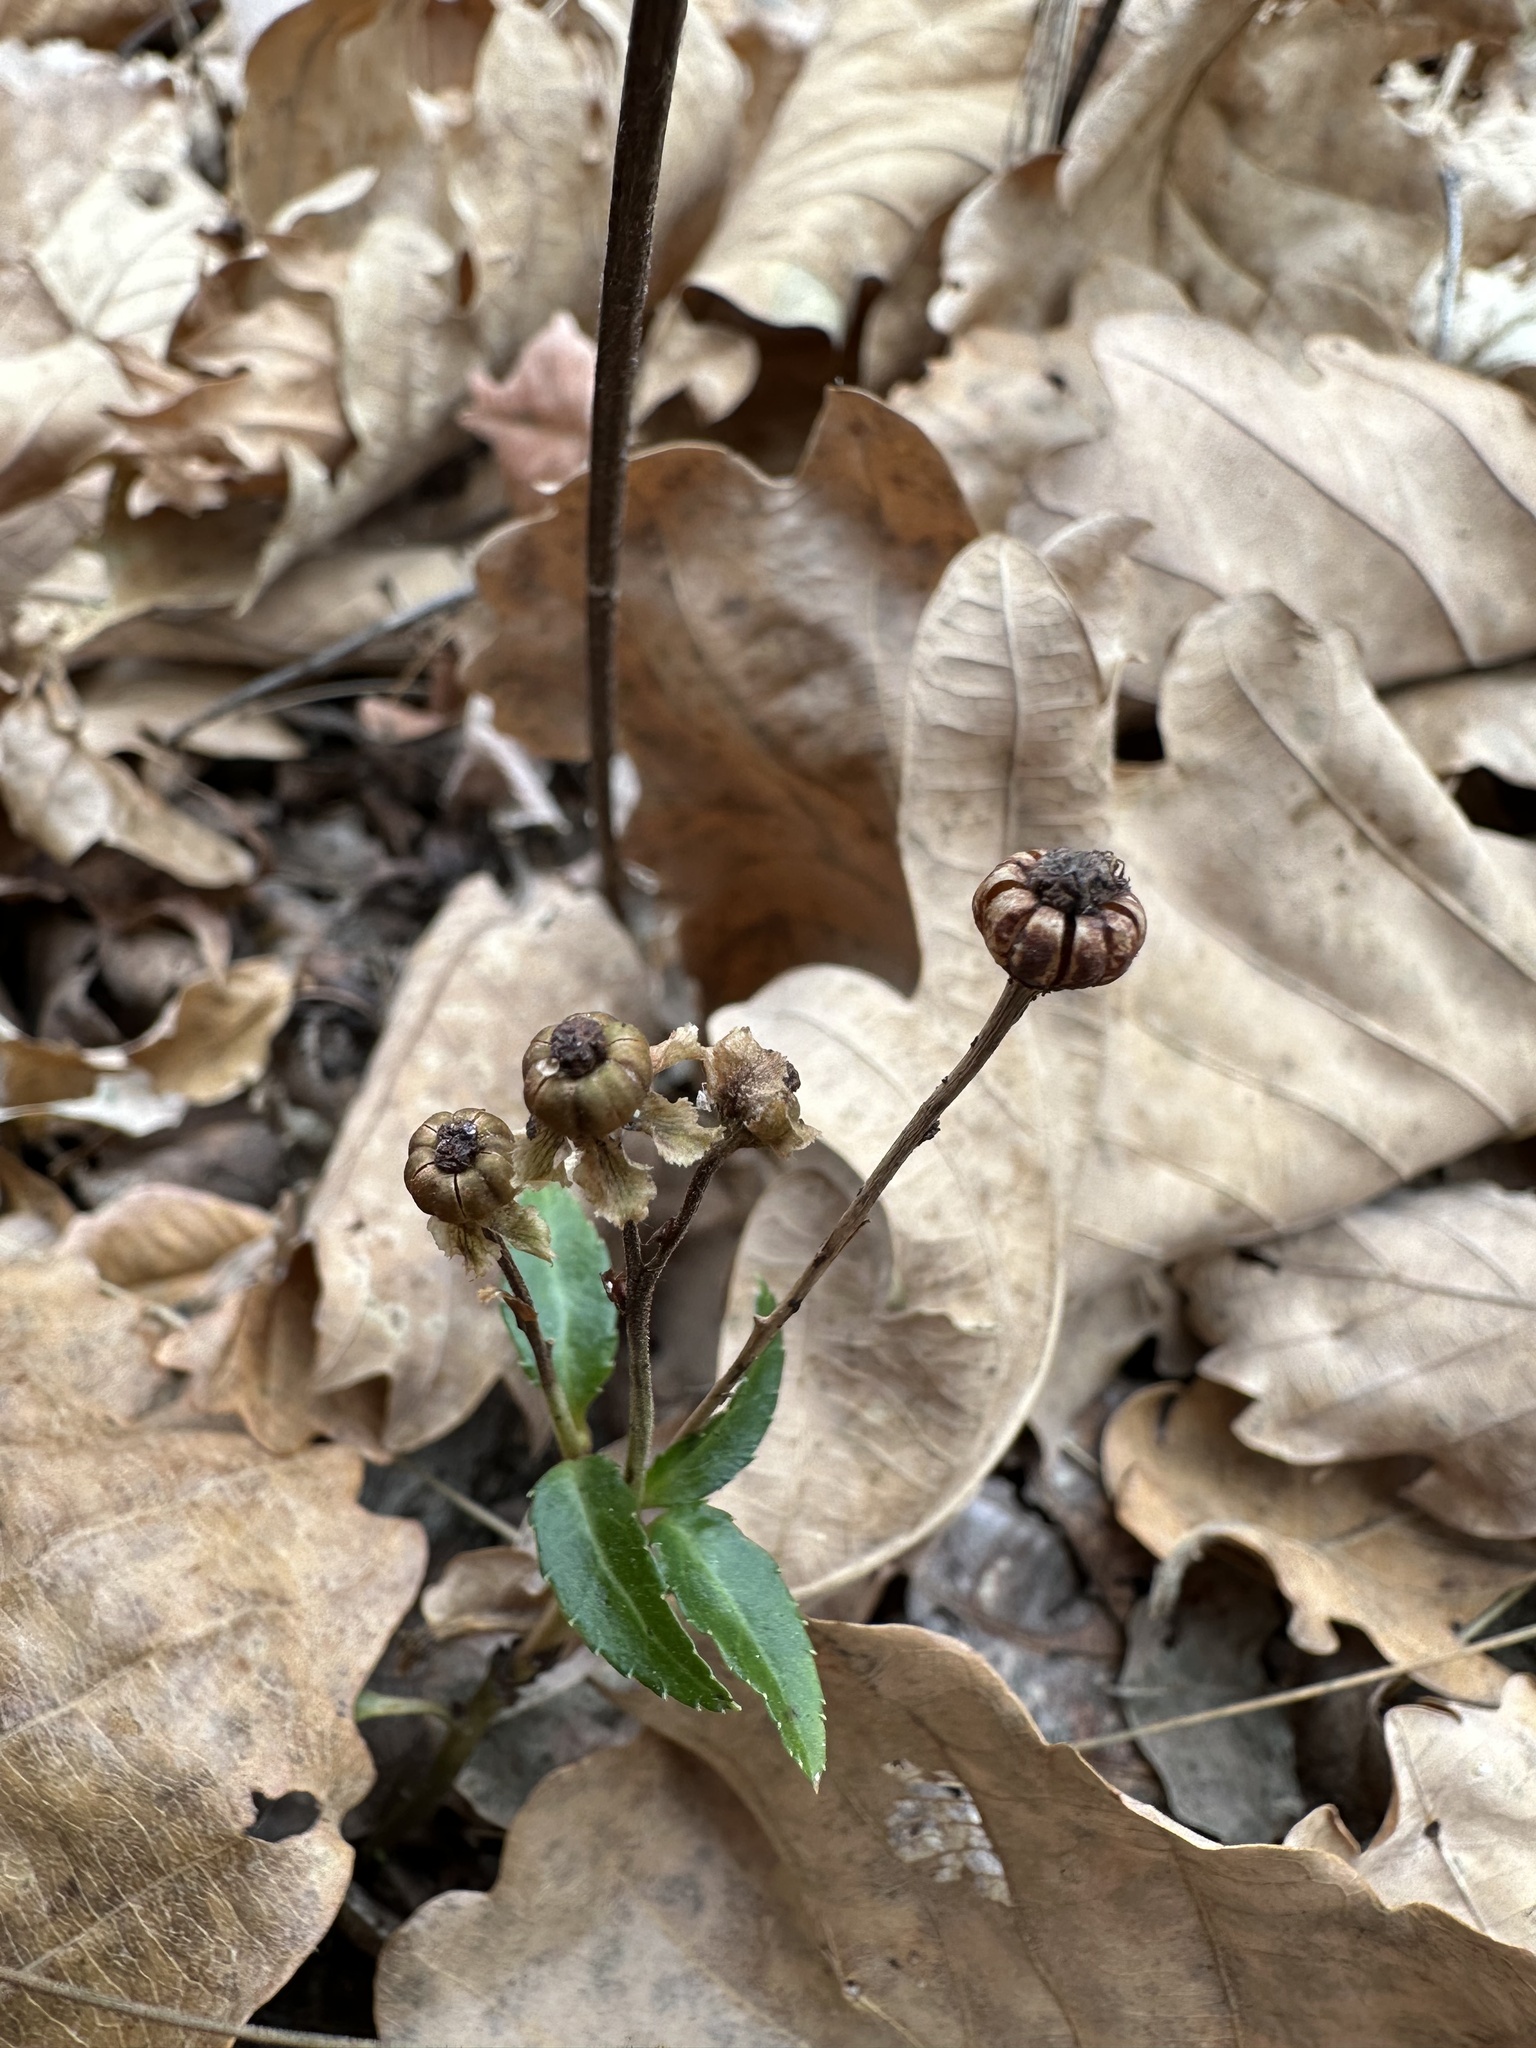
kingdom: Plantae
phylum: Tracheophyta
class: Magnoliopsida
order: Ericales
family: Ericaceae
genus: Chimaphila
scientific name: Chimaphila japonica
